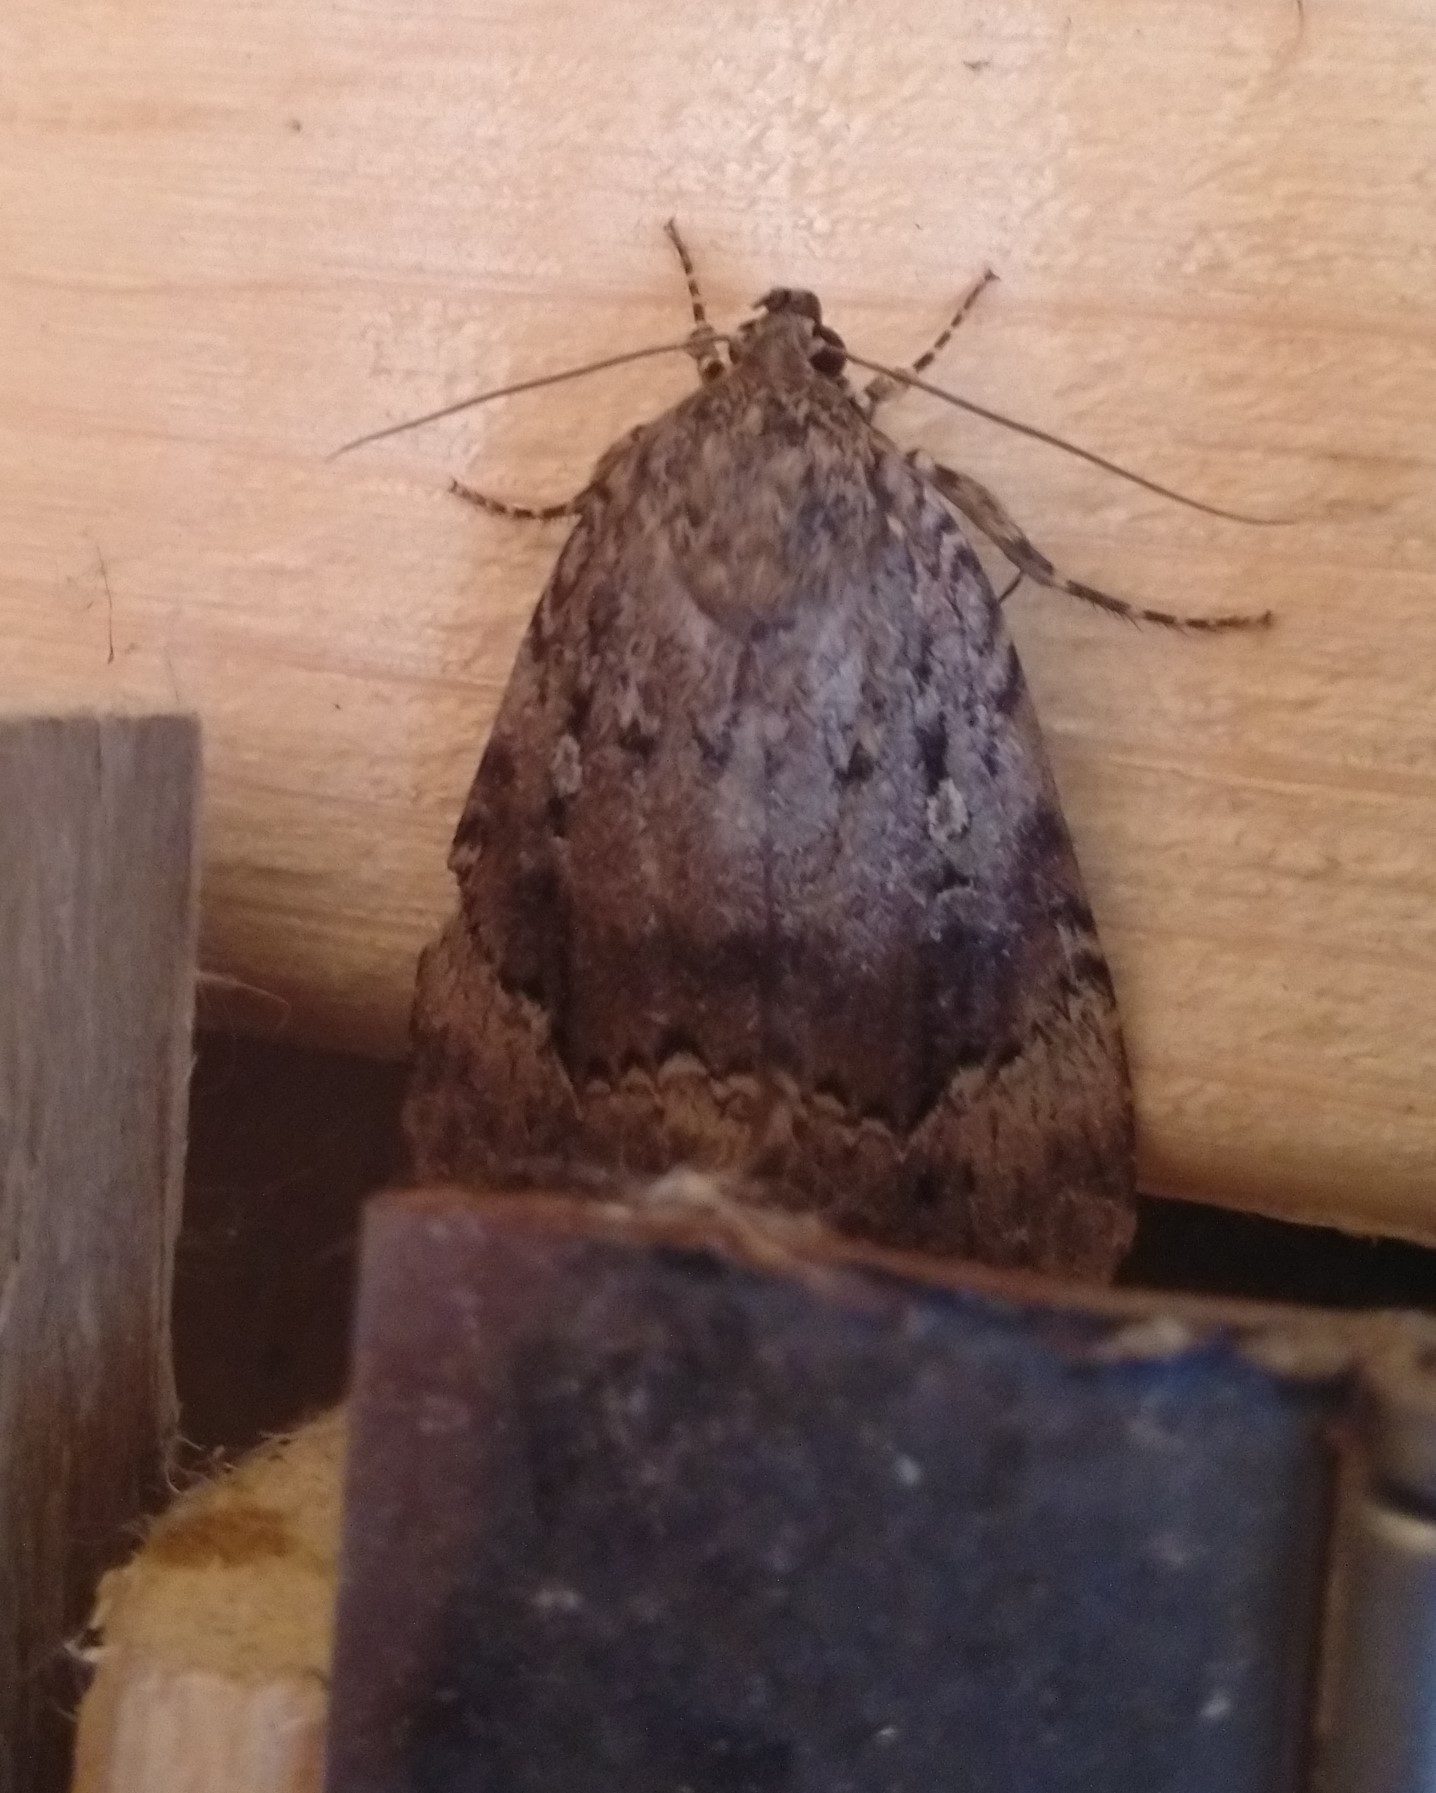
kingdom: Animalia
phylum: Arthropoda
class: Insecta
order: Lepidoptera
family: Noctuidae
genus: Amphipyra
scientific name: Amphipyra pyramidoides
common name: American copper underwing
